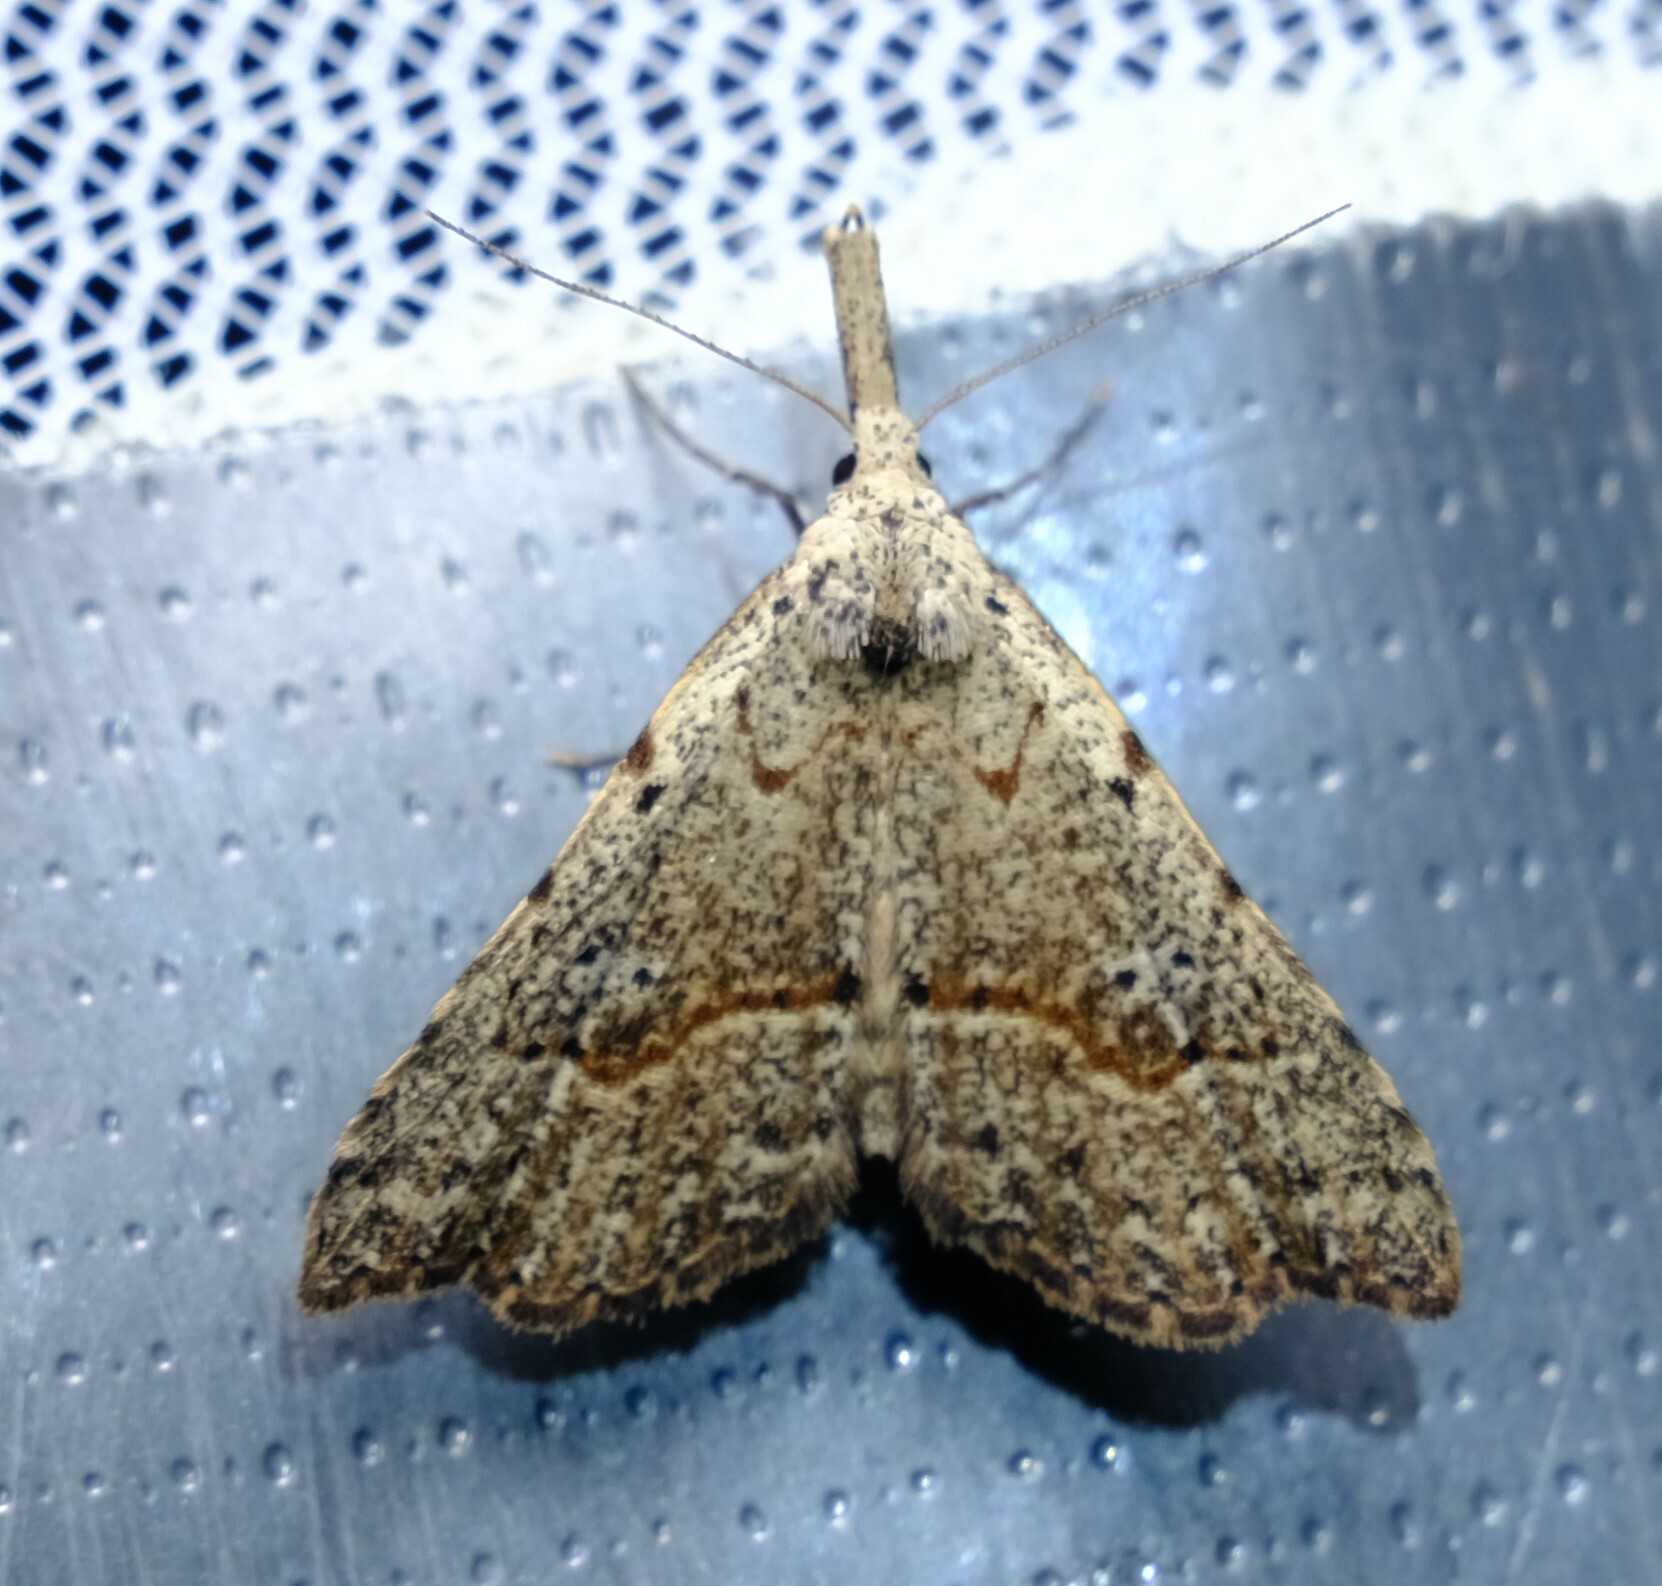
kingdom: Animalia
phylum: Arthropoda
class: Insecta
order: Lepidoptera
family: Erebidae
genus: Trigonistis
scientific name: Trigonistis asthenopa
